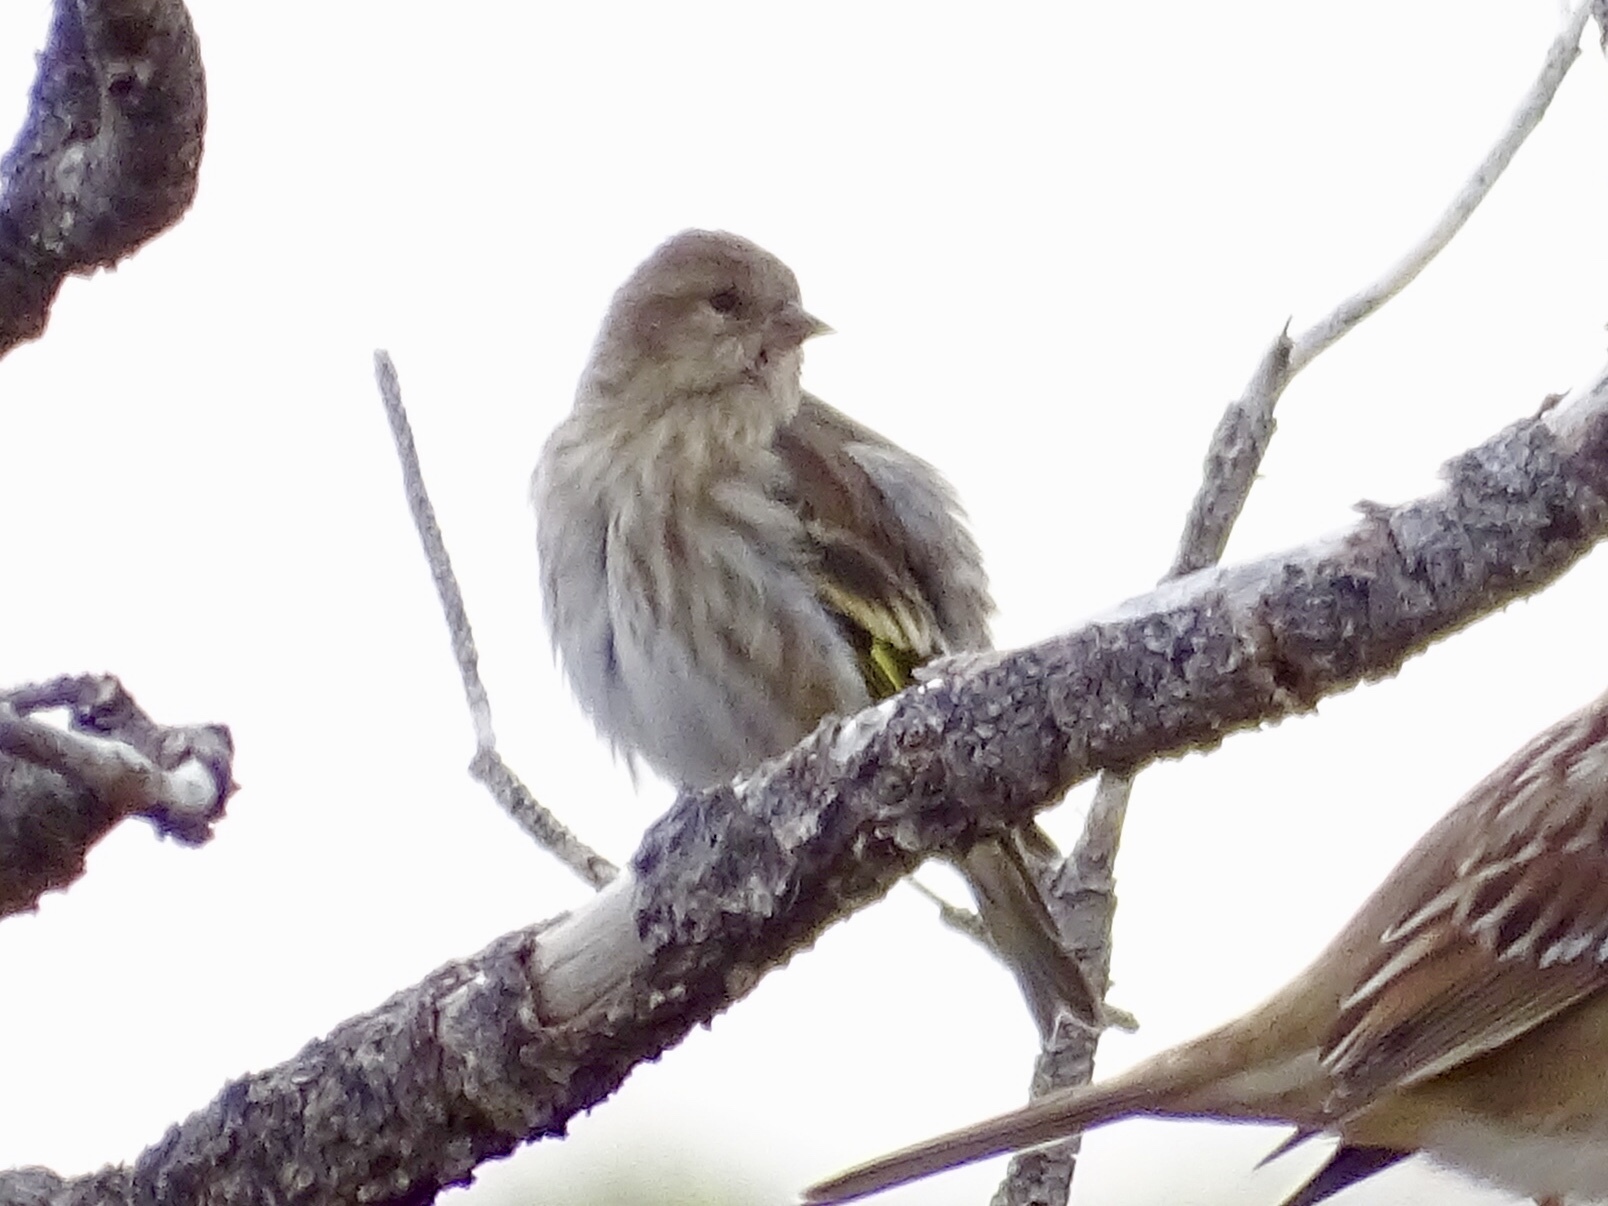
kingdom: Animalia
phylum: Chordata
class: Aves
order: Passeriformes
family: Fringillidae
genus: Spinus
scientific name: Spinus pinus
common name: Pine siskin
